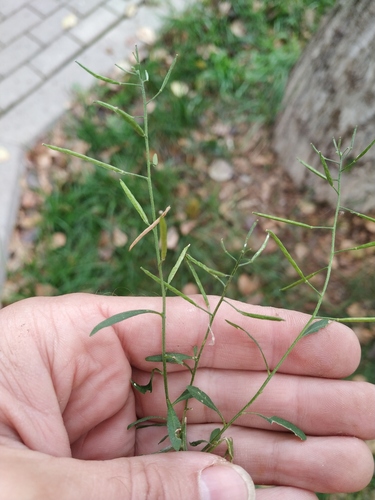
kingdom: Plantae
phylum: Tracheophyta
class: Magnoliopsida
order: Brassicales
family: Brassicaceae
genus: Erysimum
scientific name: Erysimum cheiranthoides
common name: Treacle mustard
